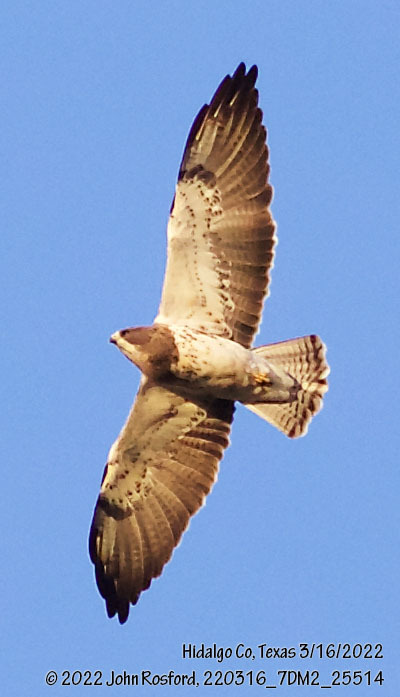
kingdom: Animalia
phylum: Chordata
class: Aves
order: Accipitriformes
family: Accipitridae
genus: Buteo
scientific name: Buteo swainsoni
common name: Swainson's hawk
